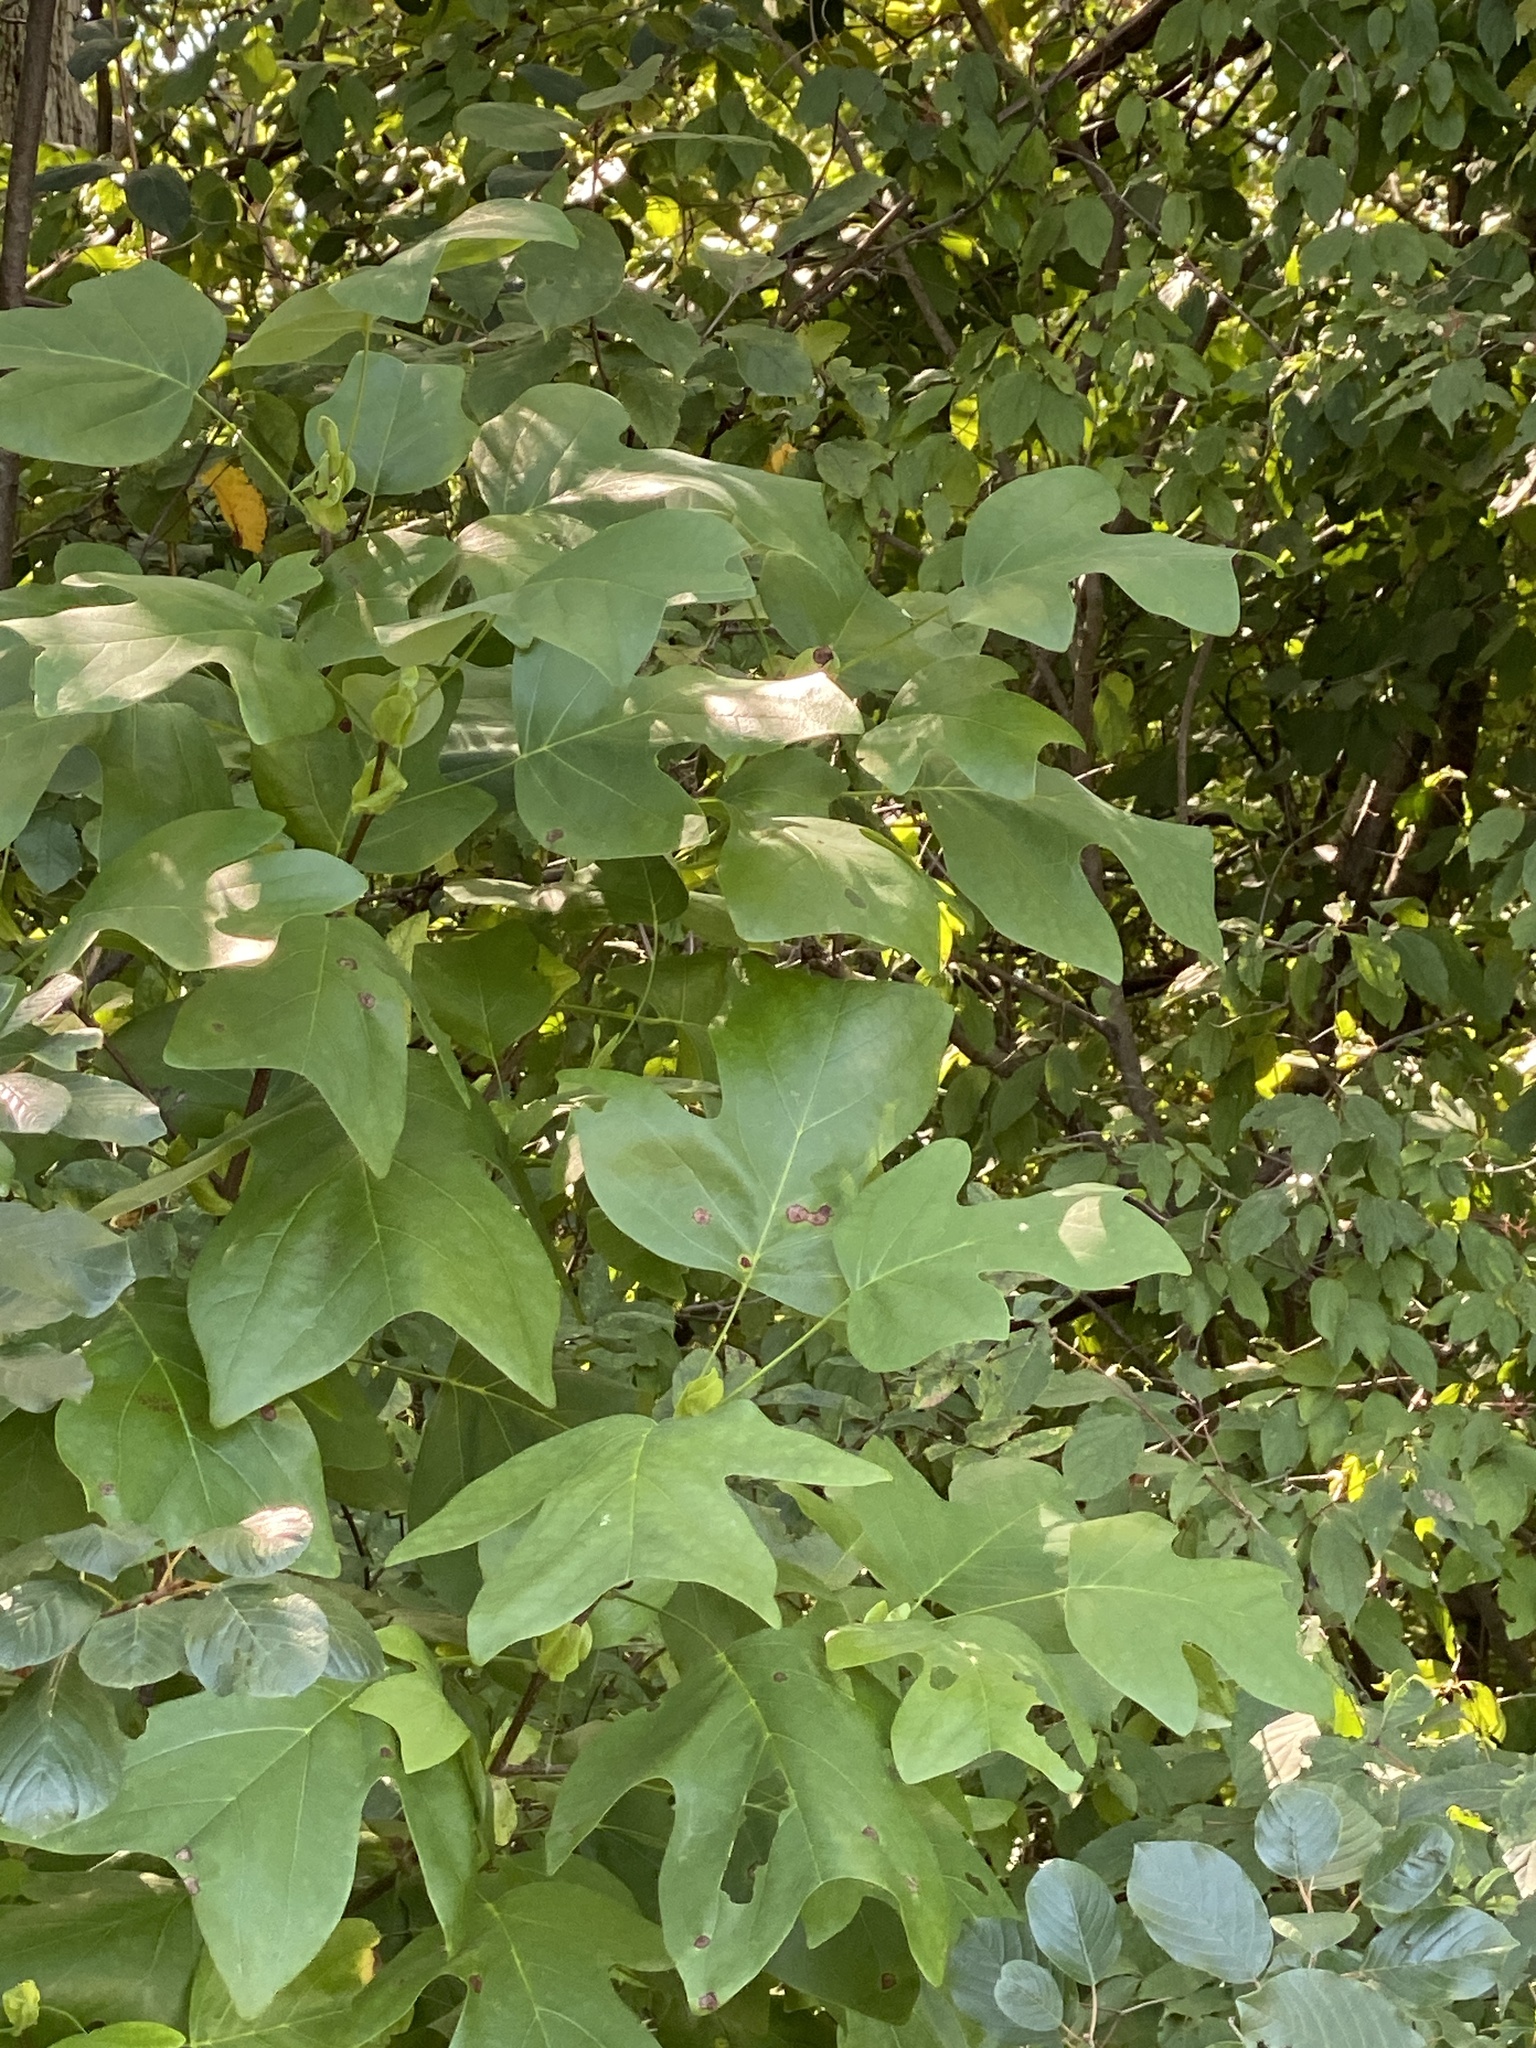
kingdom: Plantae
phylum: Tracheophyta
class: Magnoliopsida
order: Magnoliales
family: Magnoliaceae
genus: Liriodendron
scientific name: Liriodendron tulipifera
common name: Tulip tree
